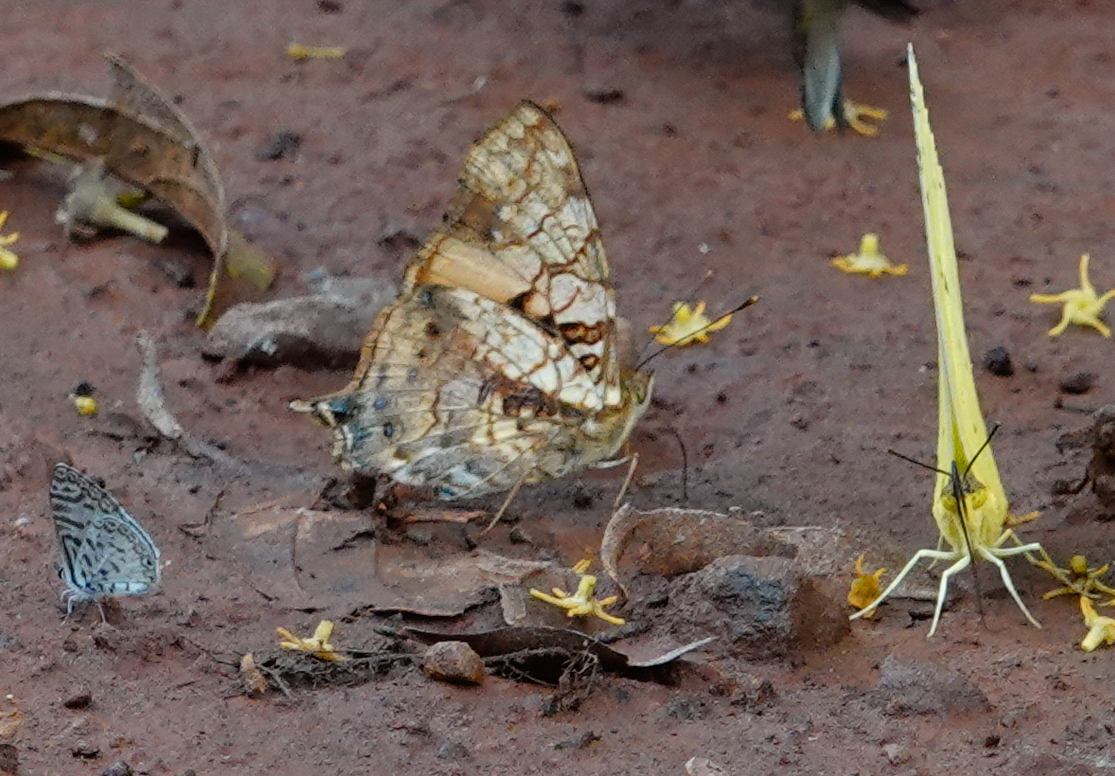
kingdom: Animalia
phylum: Arthropoda
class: Insecta
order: Lepidoptera
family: Nymphalidae
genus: Hypanartia
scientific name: Hypanartia lethe
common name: Orange mapwing
